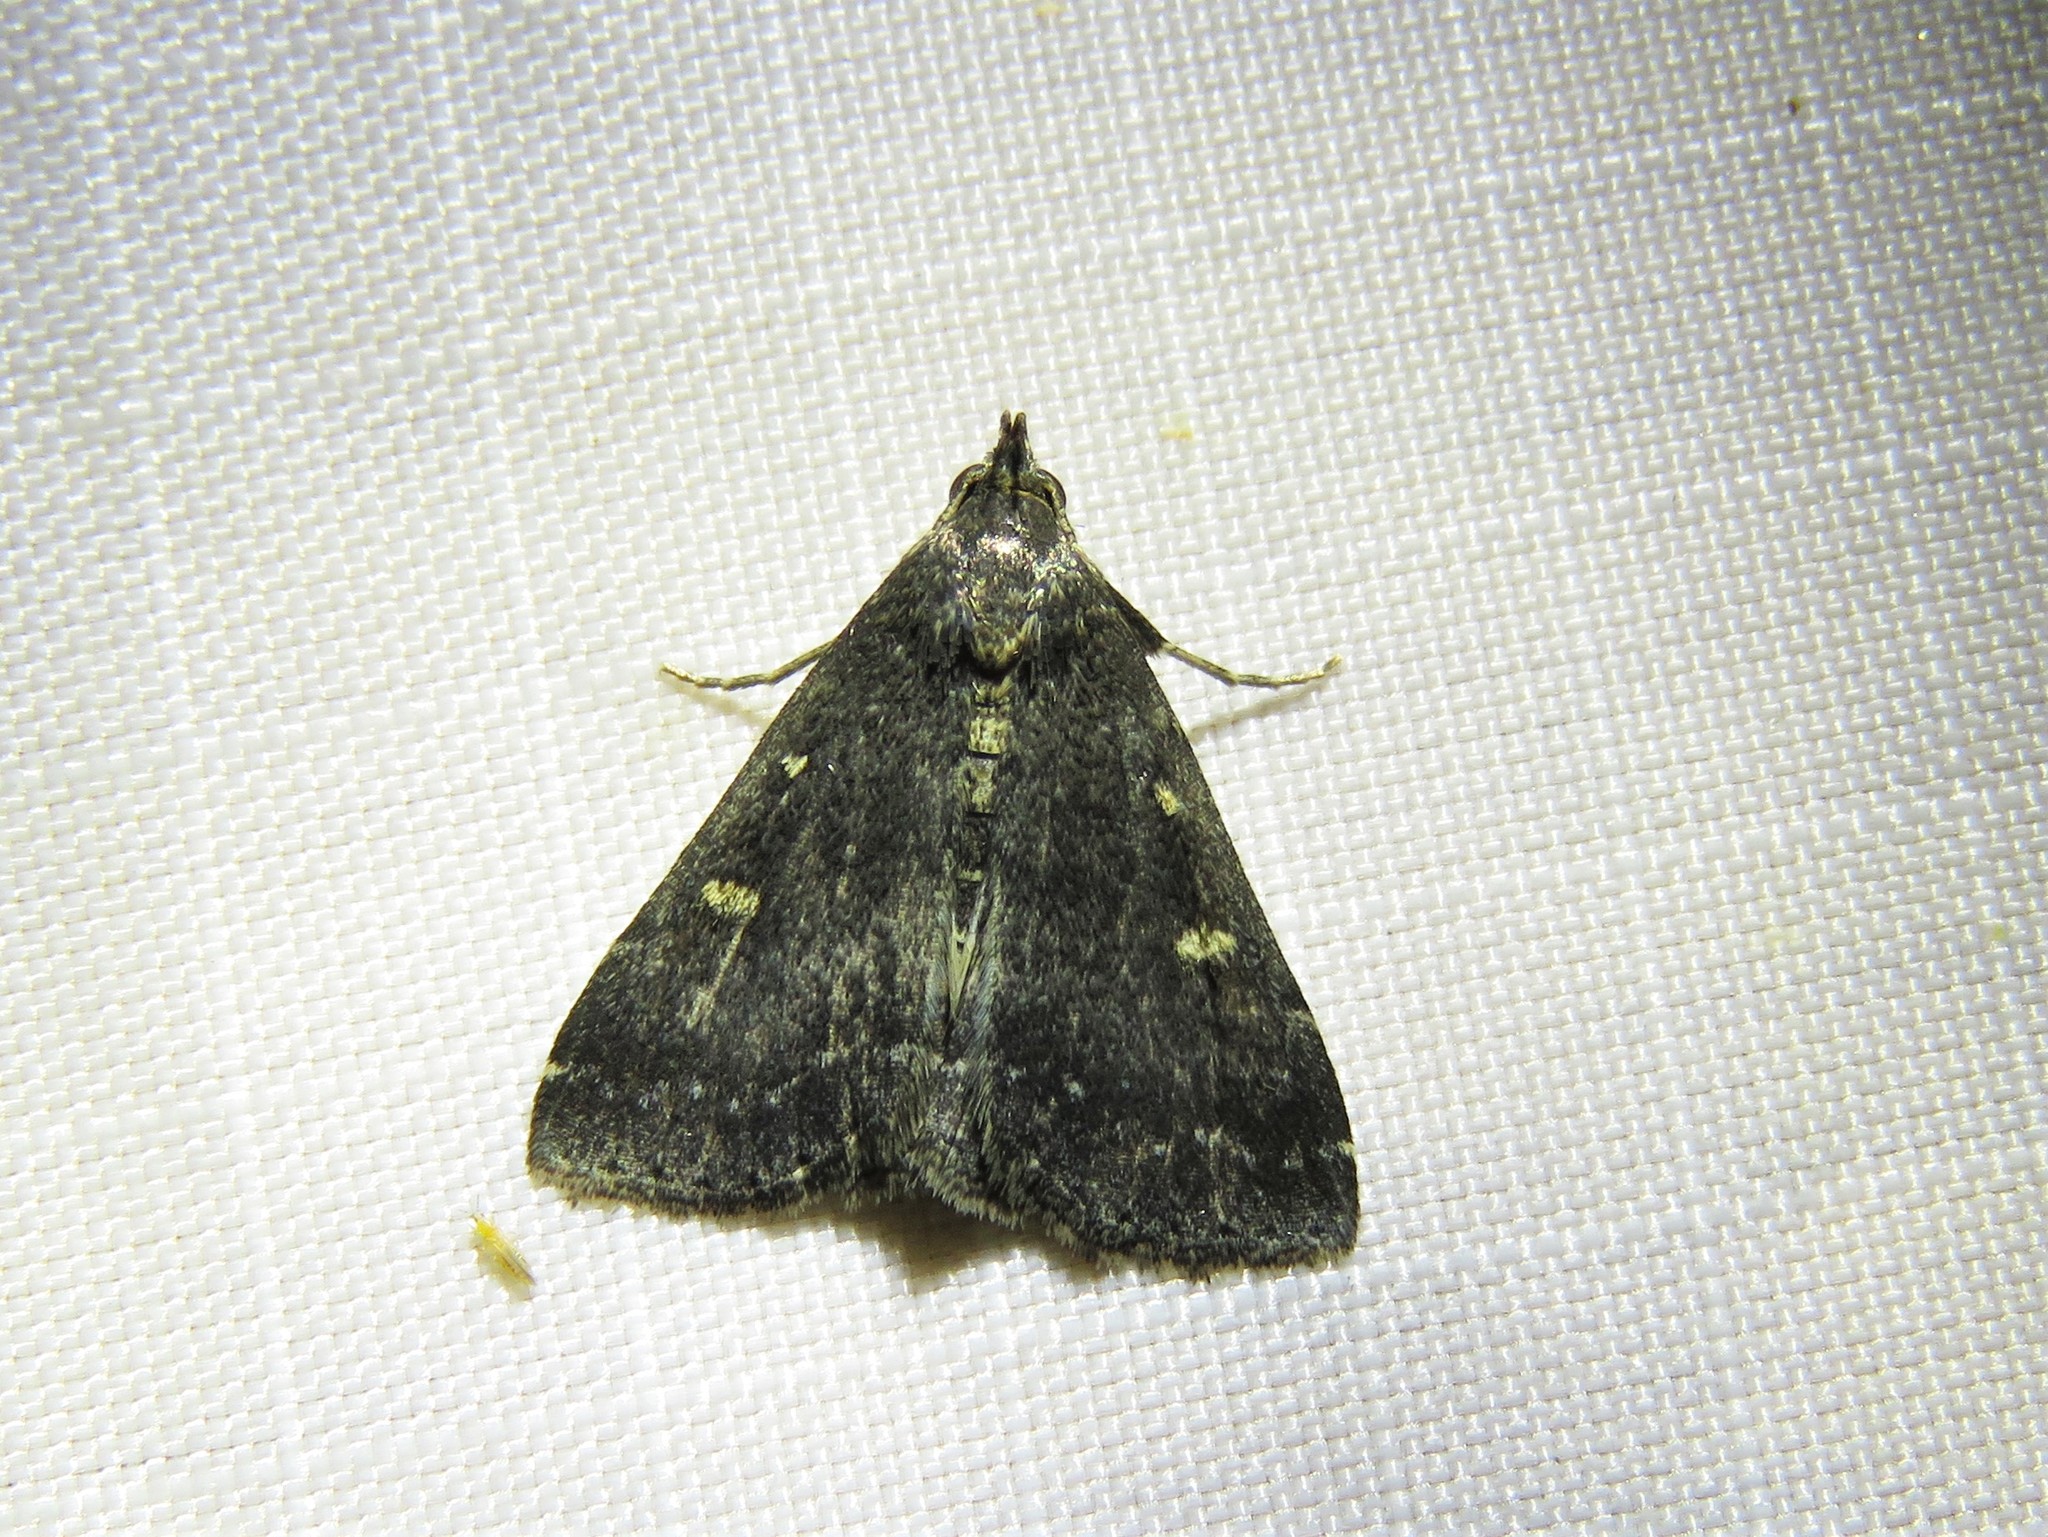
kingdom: Animalia
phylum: Arthropoda
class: Insecta
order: Lepidoptera
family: Erebidae
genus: Tetanolita
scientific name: Tetanolita mynesalis
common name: Smoky tetanolita moth
